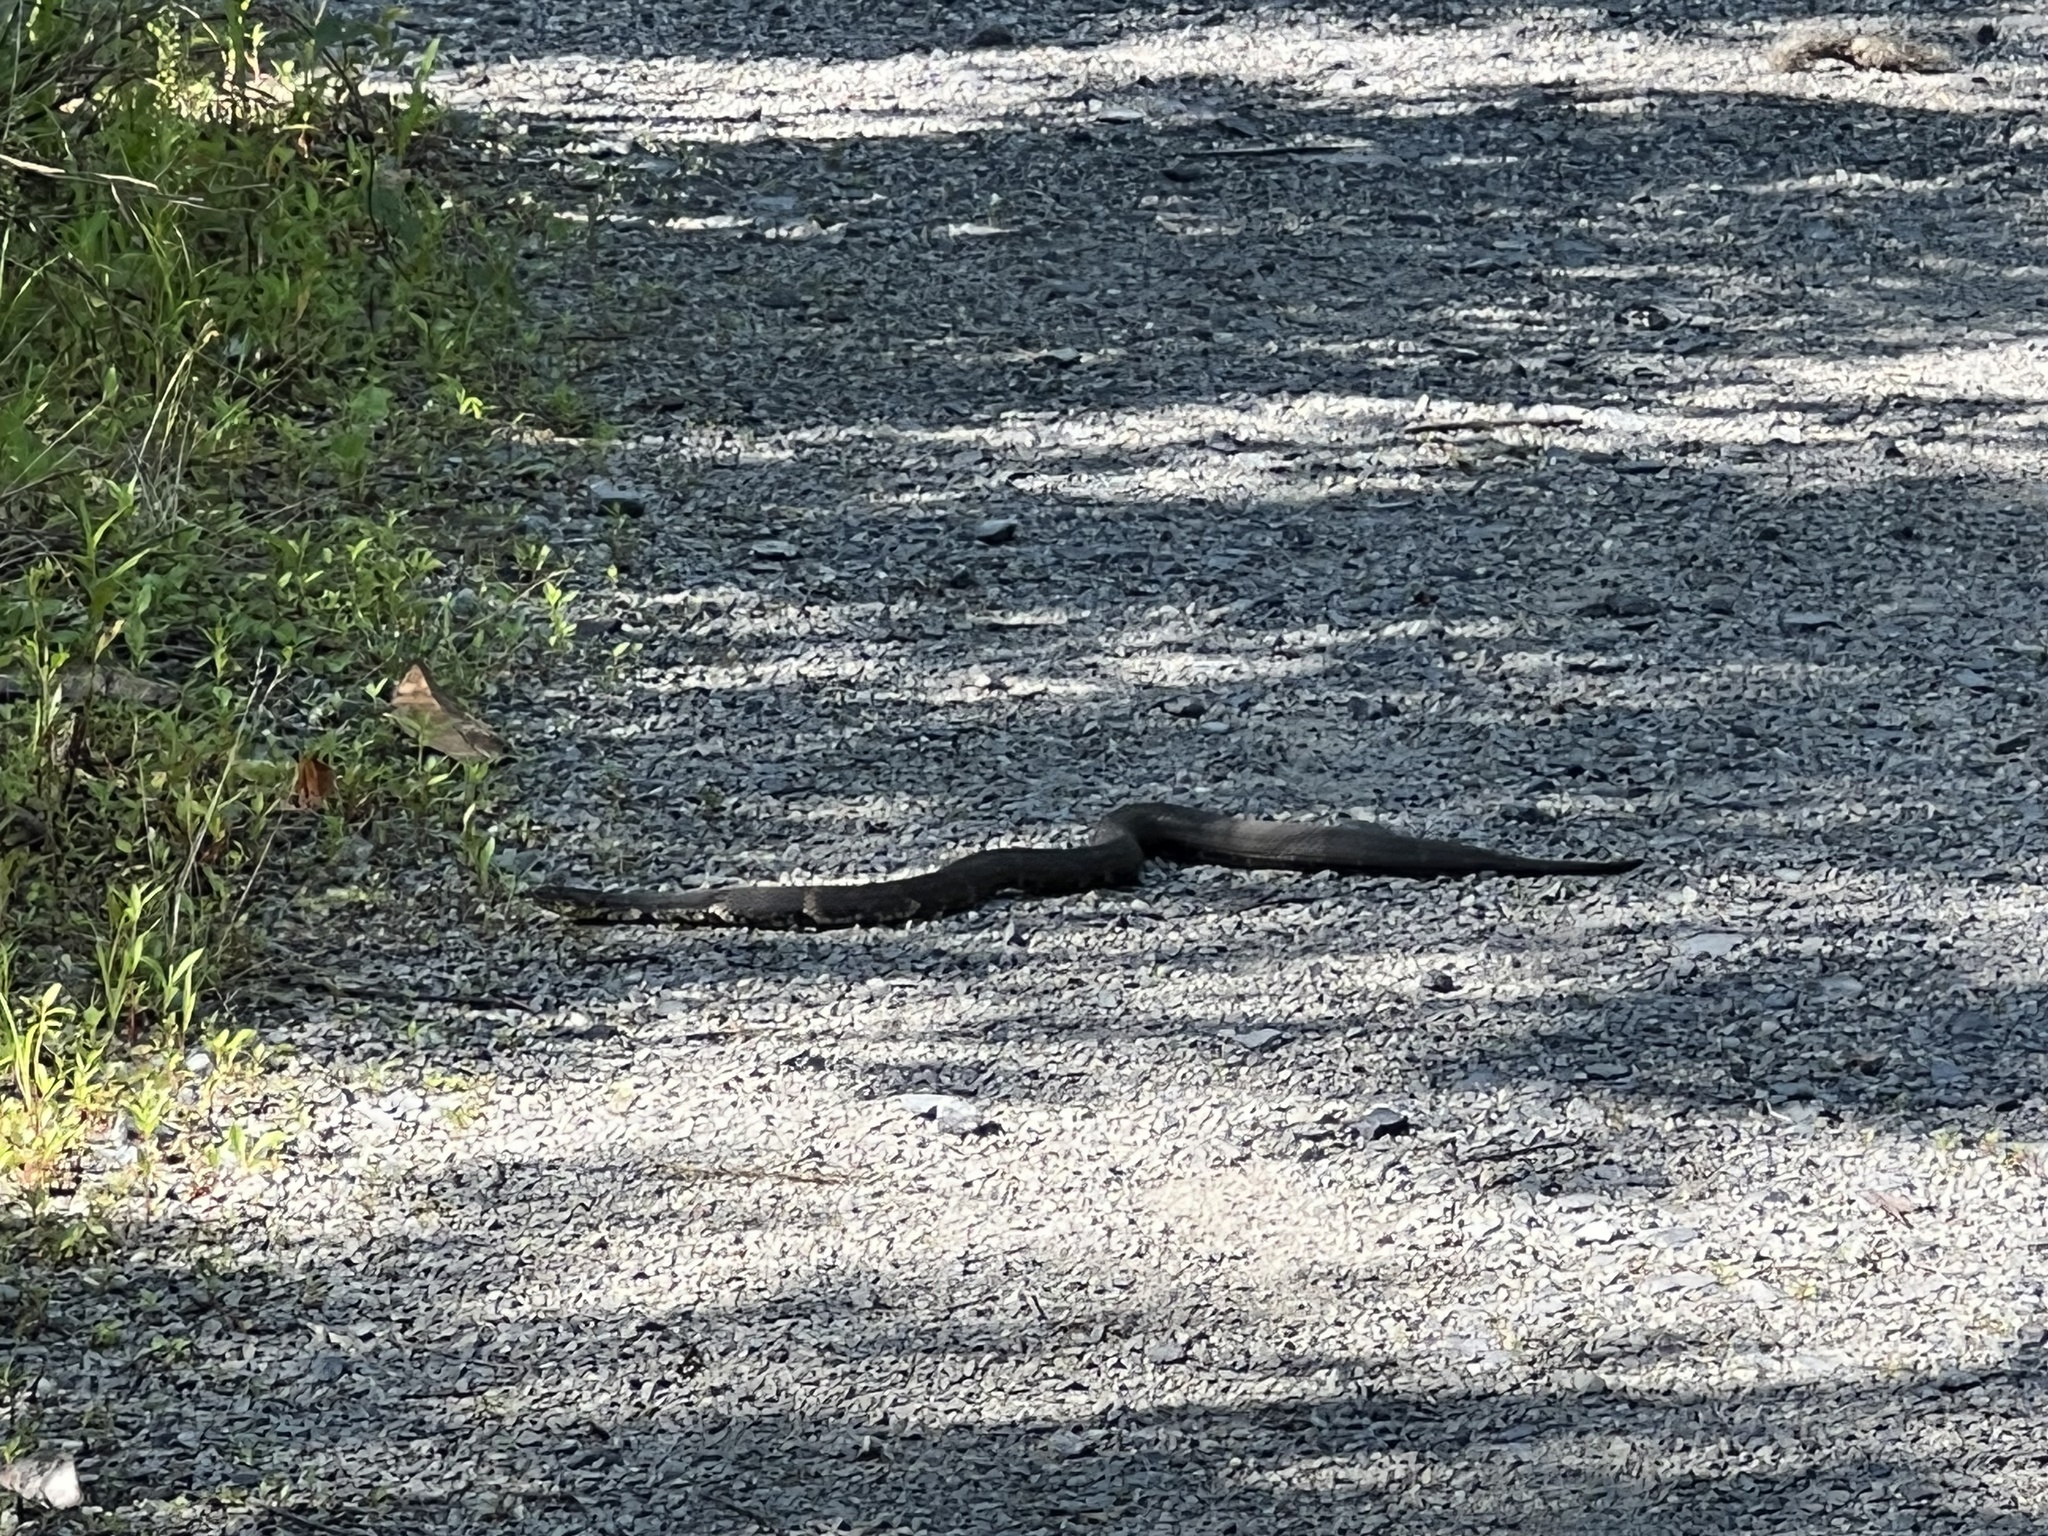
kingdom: Animalia
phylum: Chordata
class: Squamata
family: Colubridae
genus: Nerodia
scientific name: Nerodia fasciata
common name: Southern water snake
